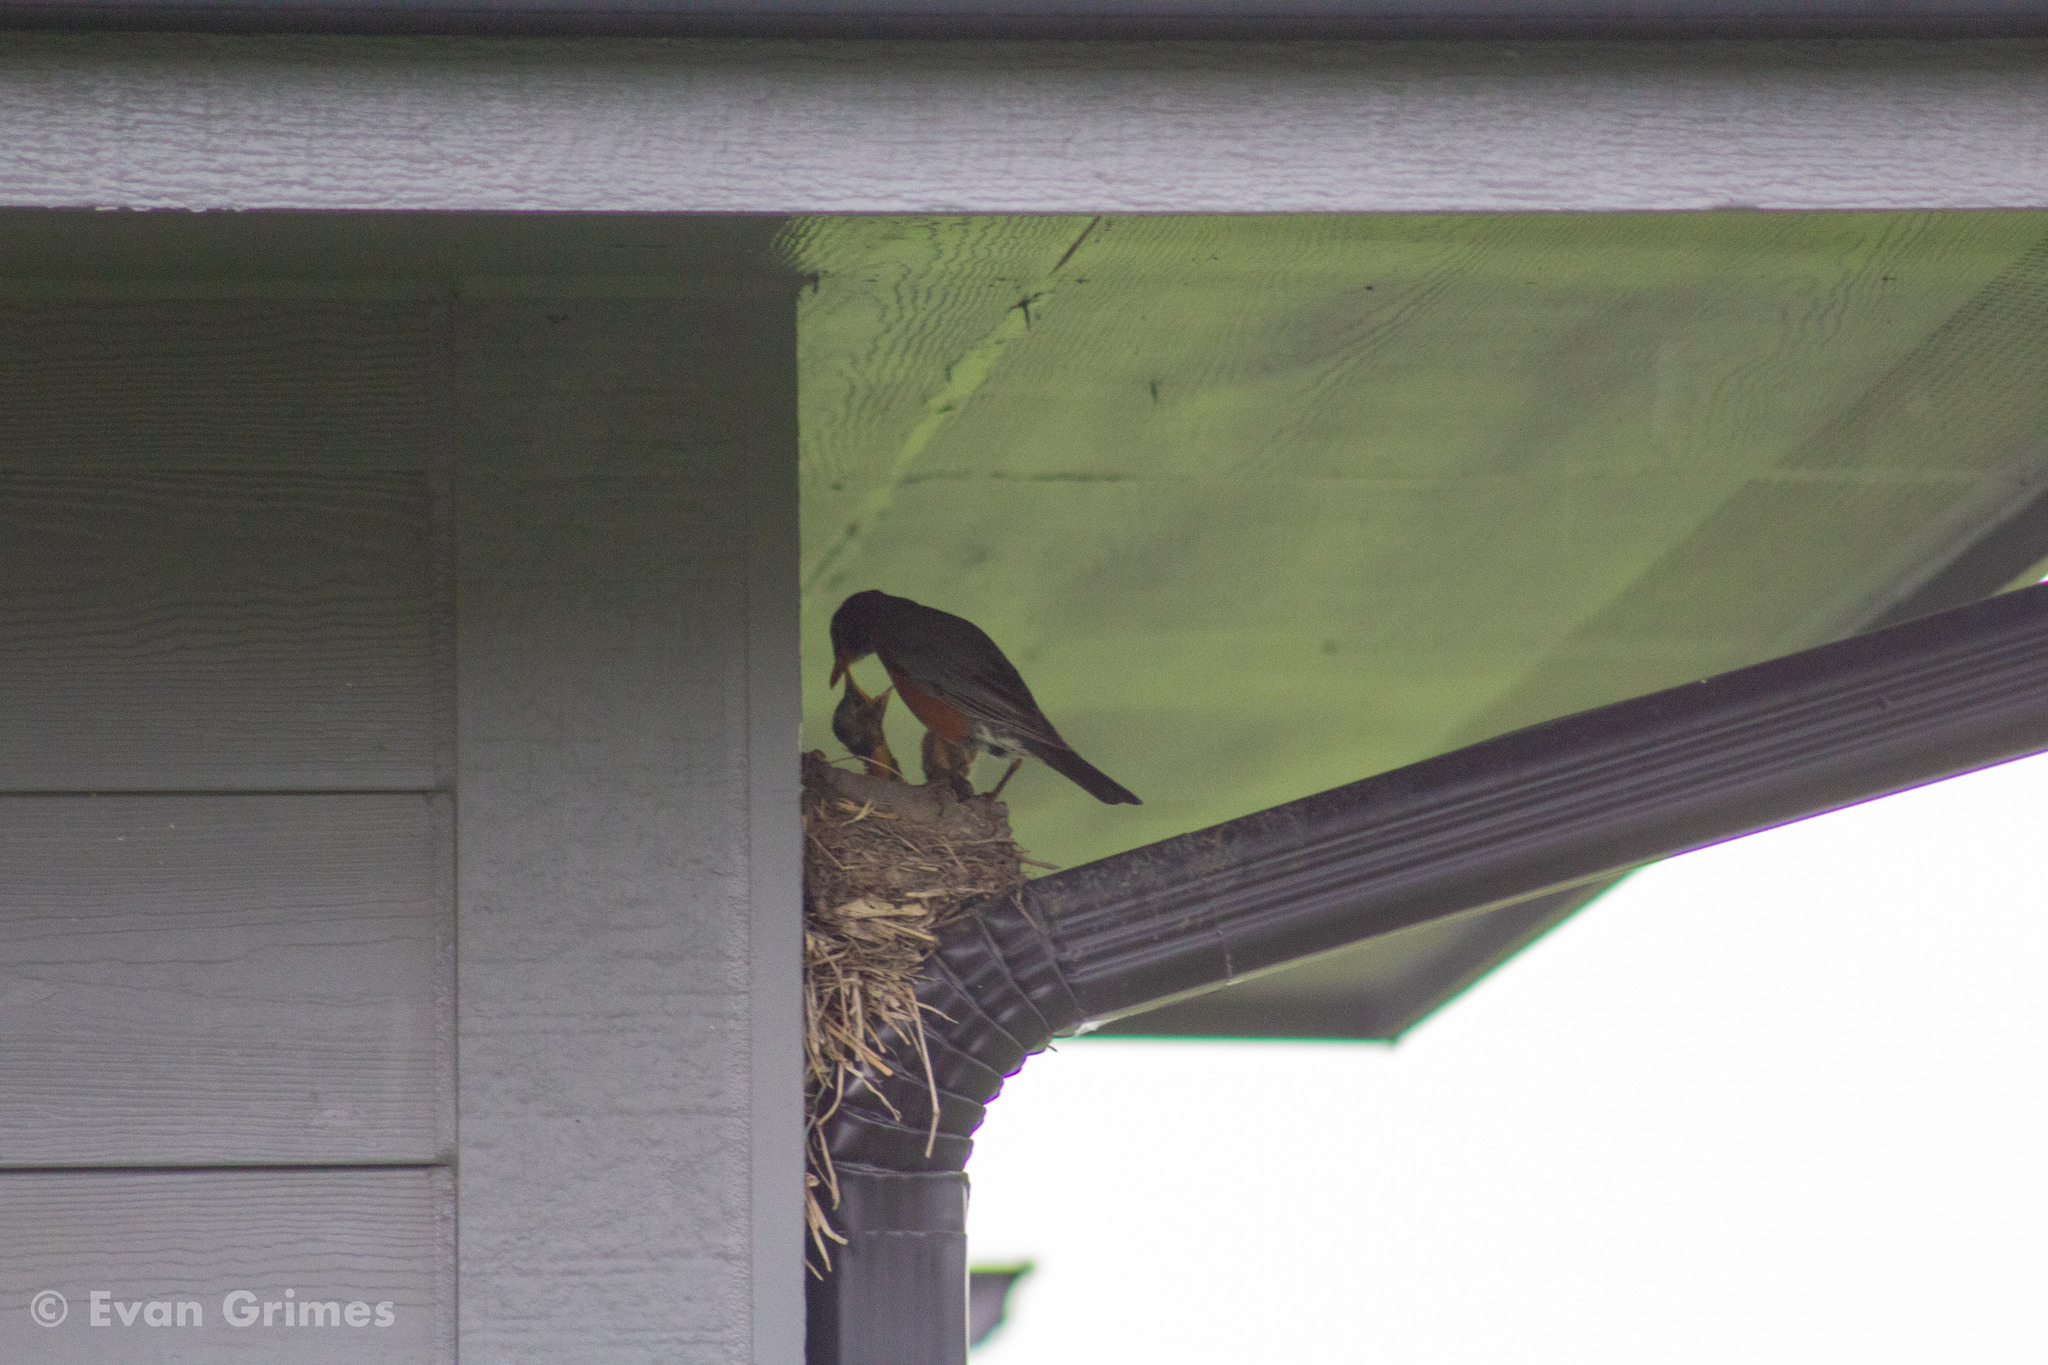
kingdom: Animalia
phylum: Chordata
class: Aves
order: Passeriformes
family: Turdidae
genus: Turdus
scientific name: Turdus migratorius
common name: American robin
